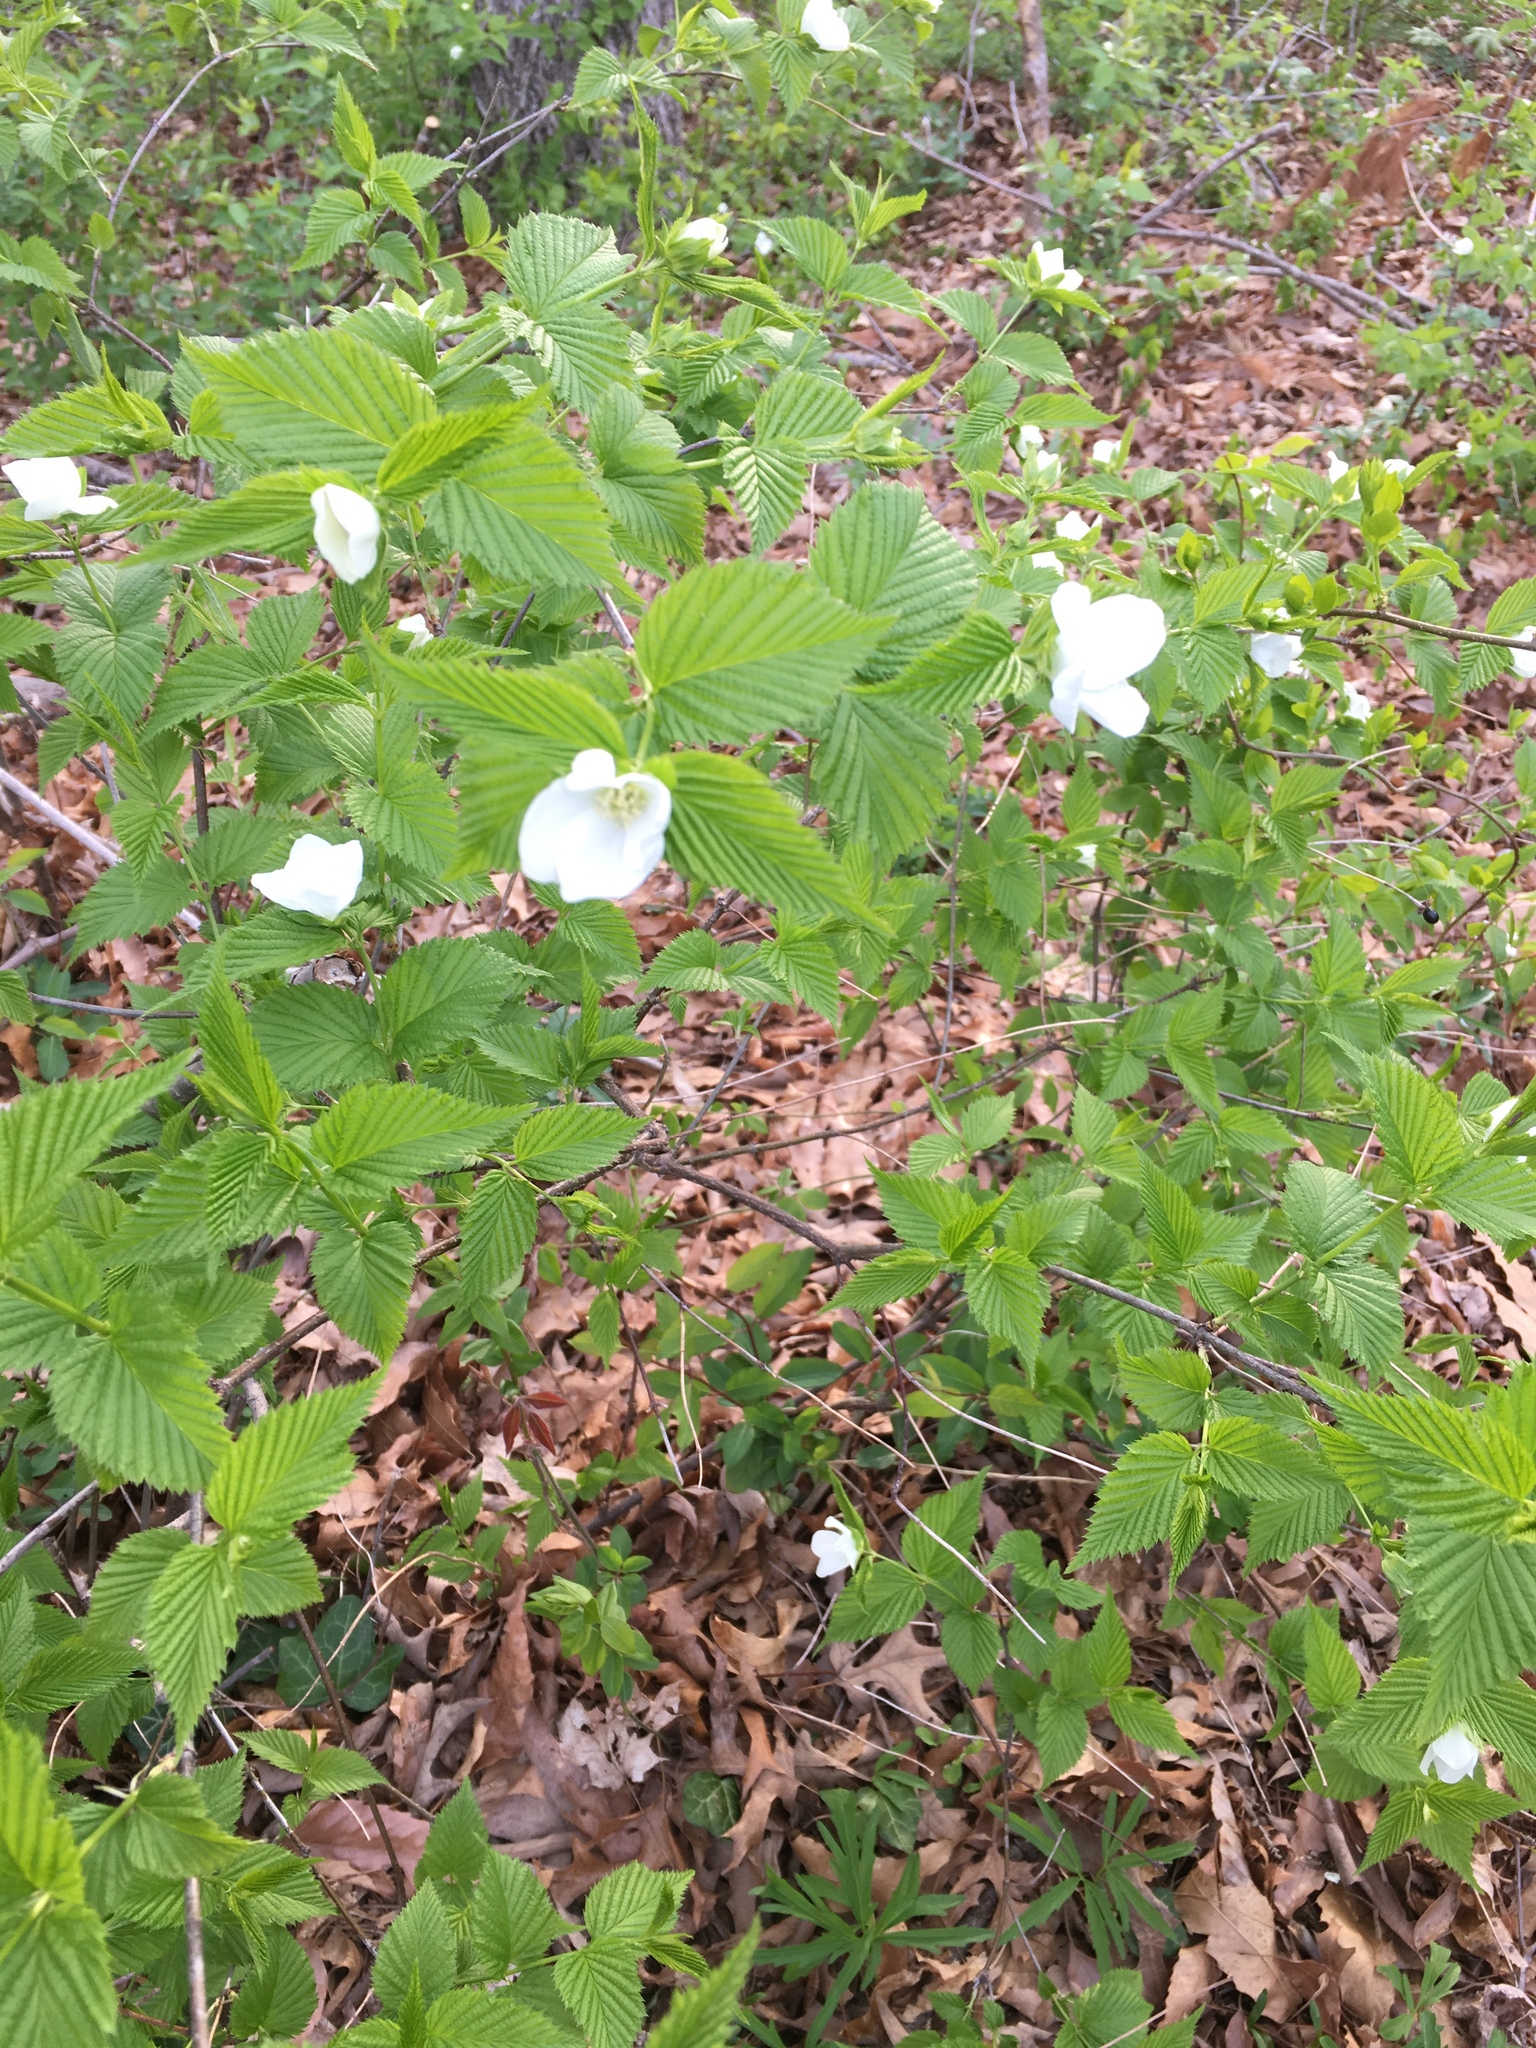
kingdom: Plantae
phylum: Tracheophyta
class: Magnoliopsida
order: Rosales
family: Rosaceae
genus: Rhodotypos
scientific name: Rhodotypos scandens
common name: Jetbead
